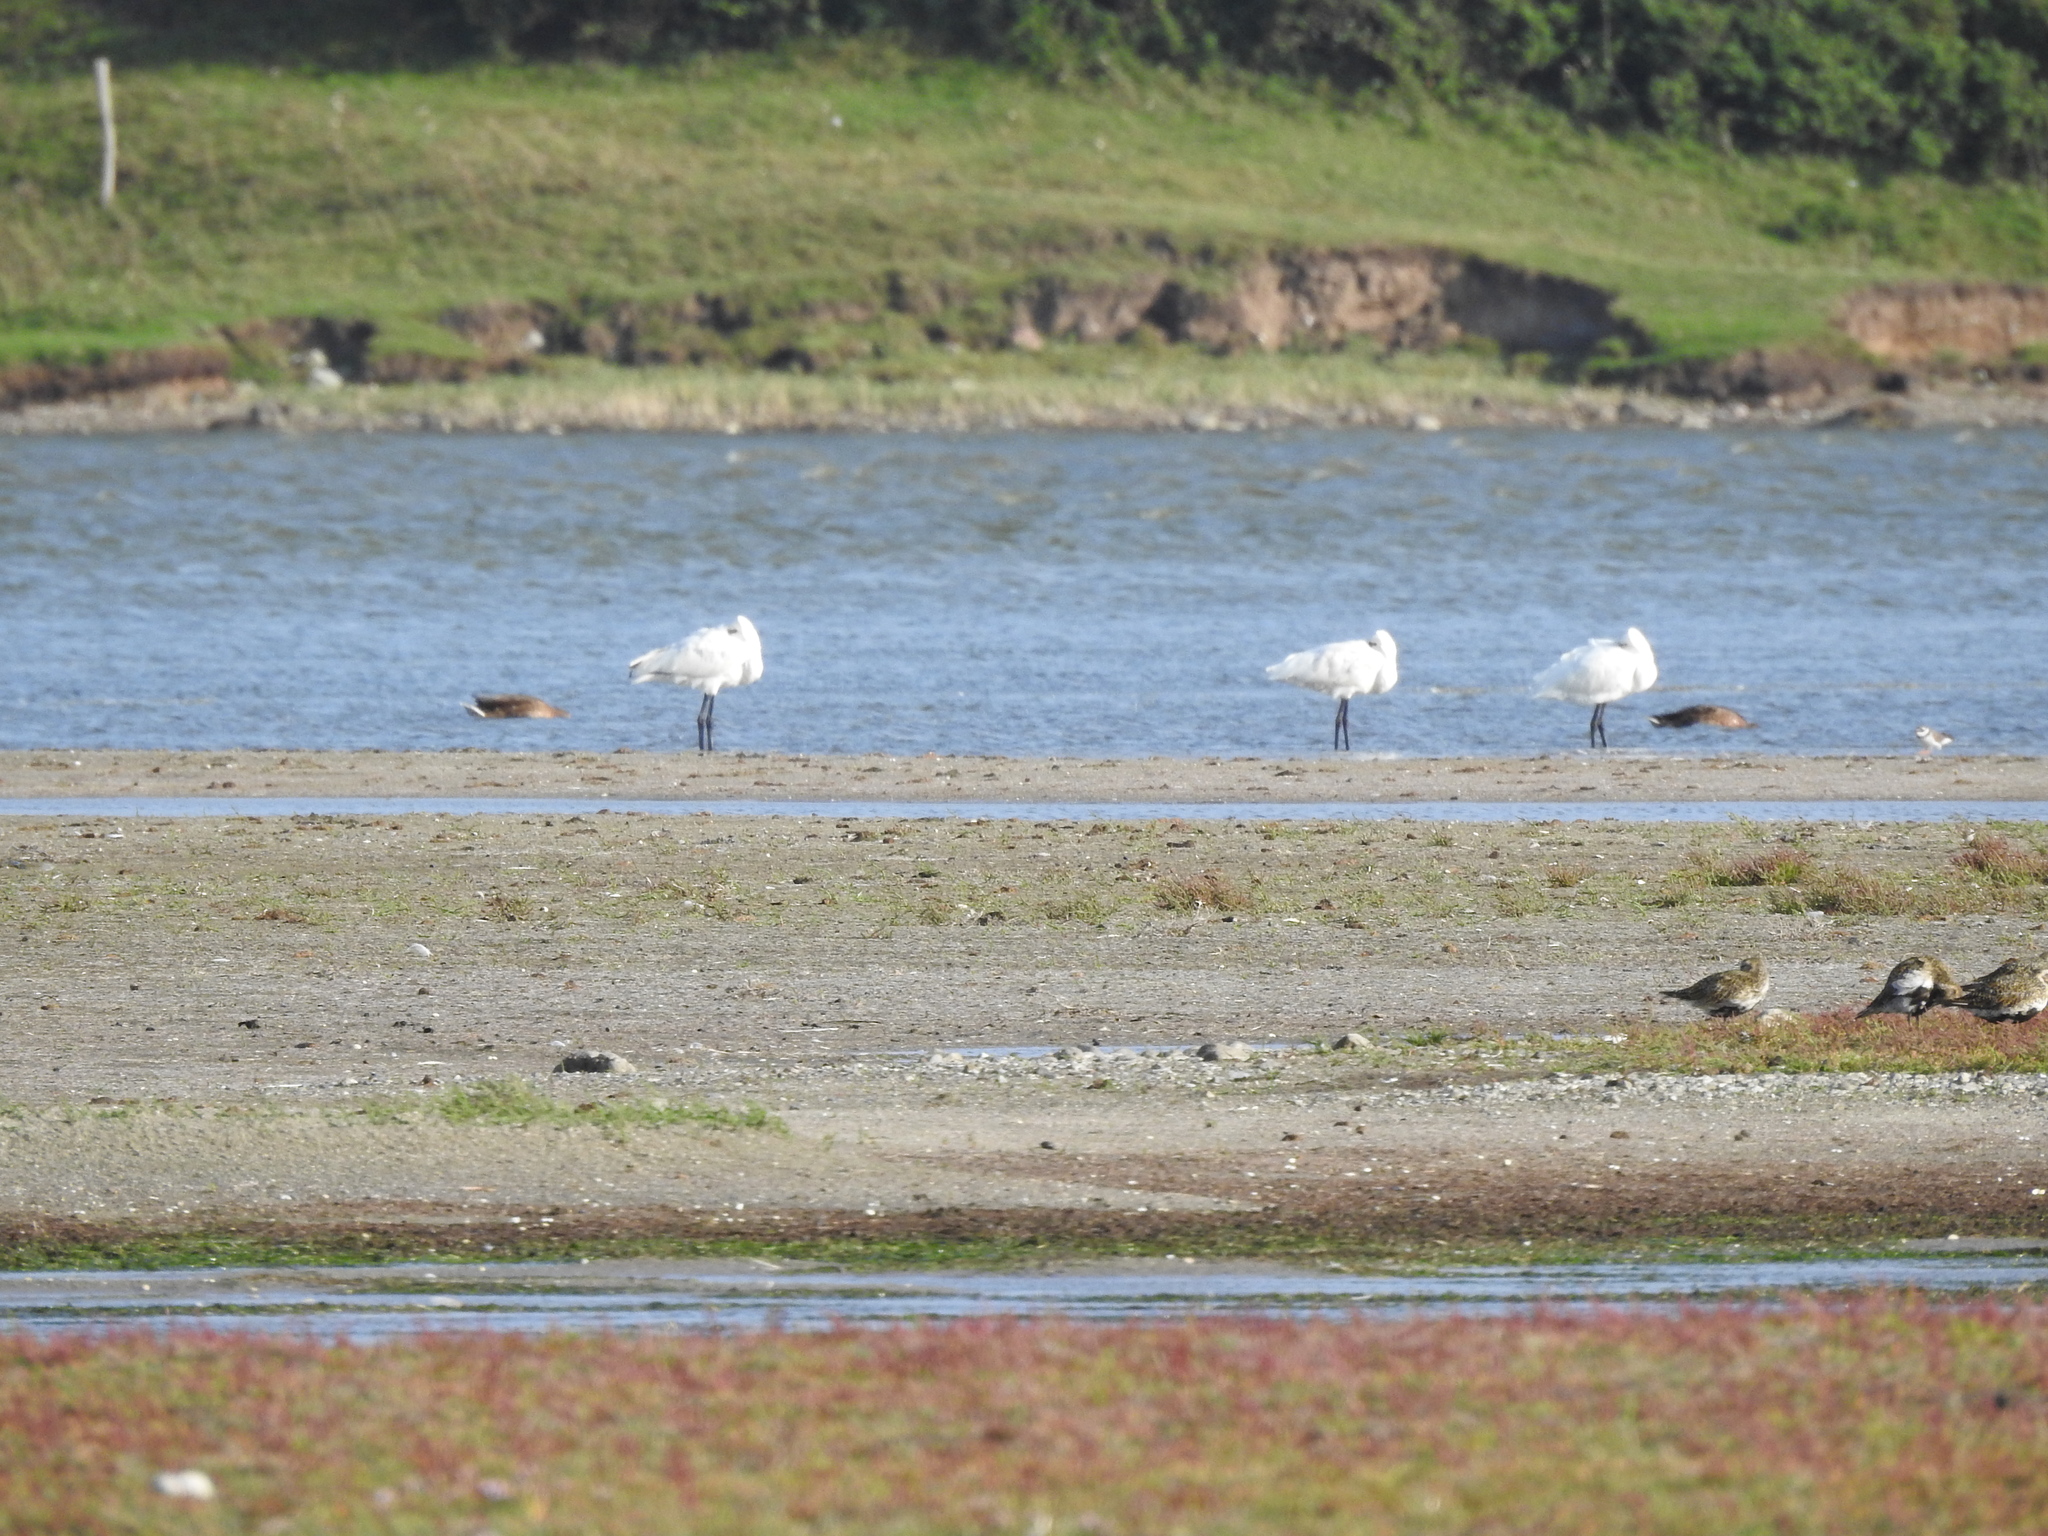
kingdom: Animalia
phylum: Chordata
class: Aves
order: Pelecaniformes
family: Threskiornithidae
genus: Platalea
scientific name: Platalea leucorodia
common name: Eurasian spoonbill
